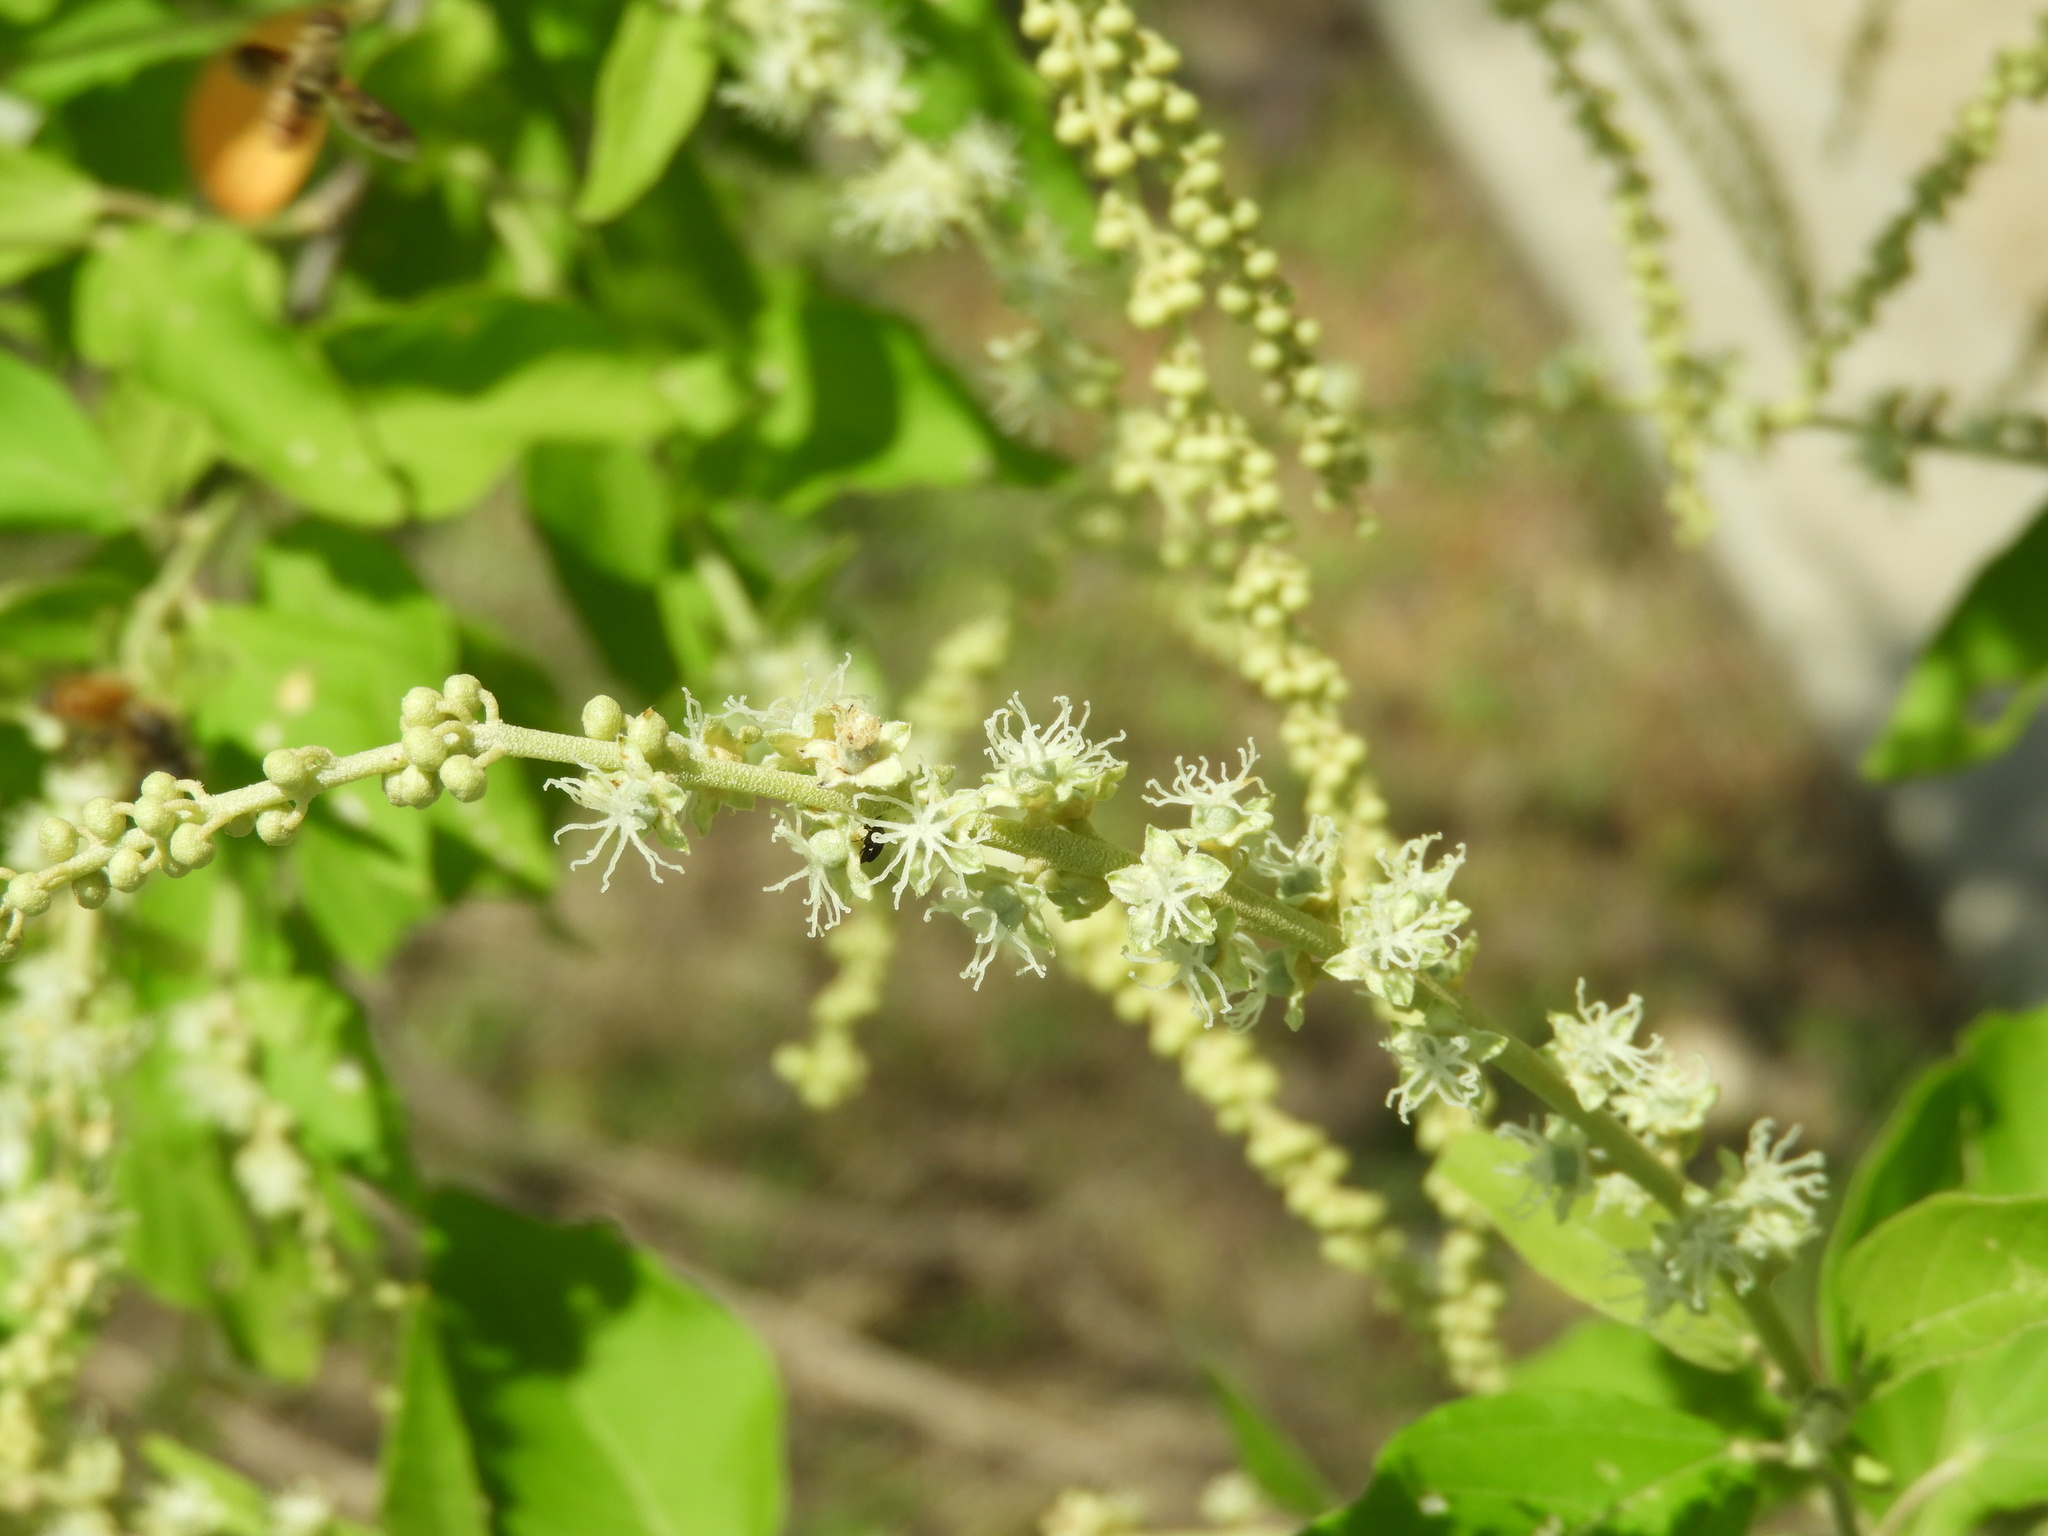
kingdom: Plantae
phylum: Tracheophyta
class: Magnoliopsida
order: Malpighiales
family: Euphorbiaceae
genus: Croton
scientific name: Croton culiacanensis
